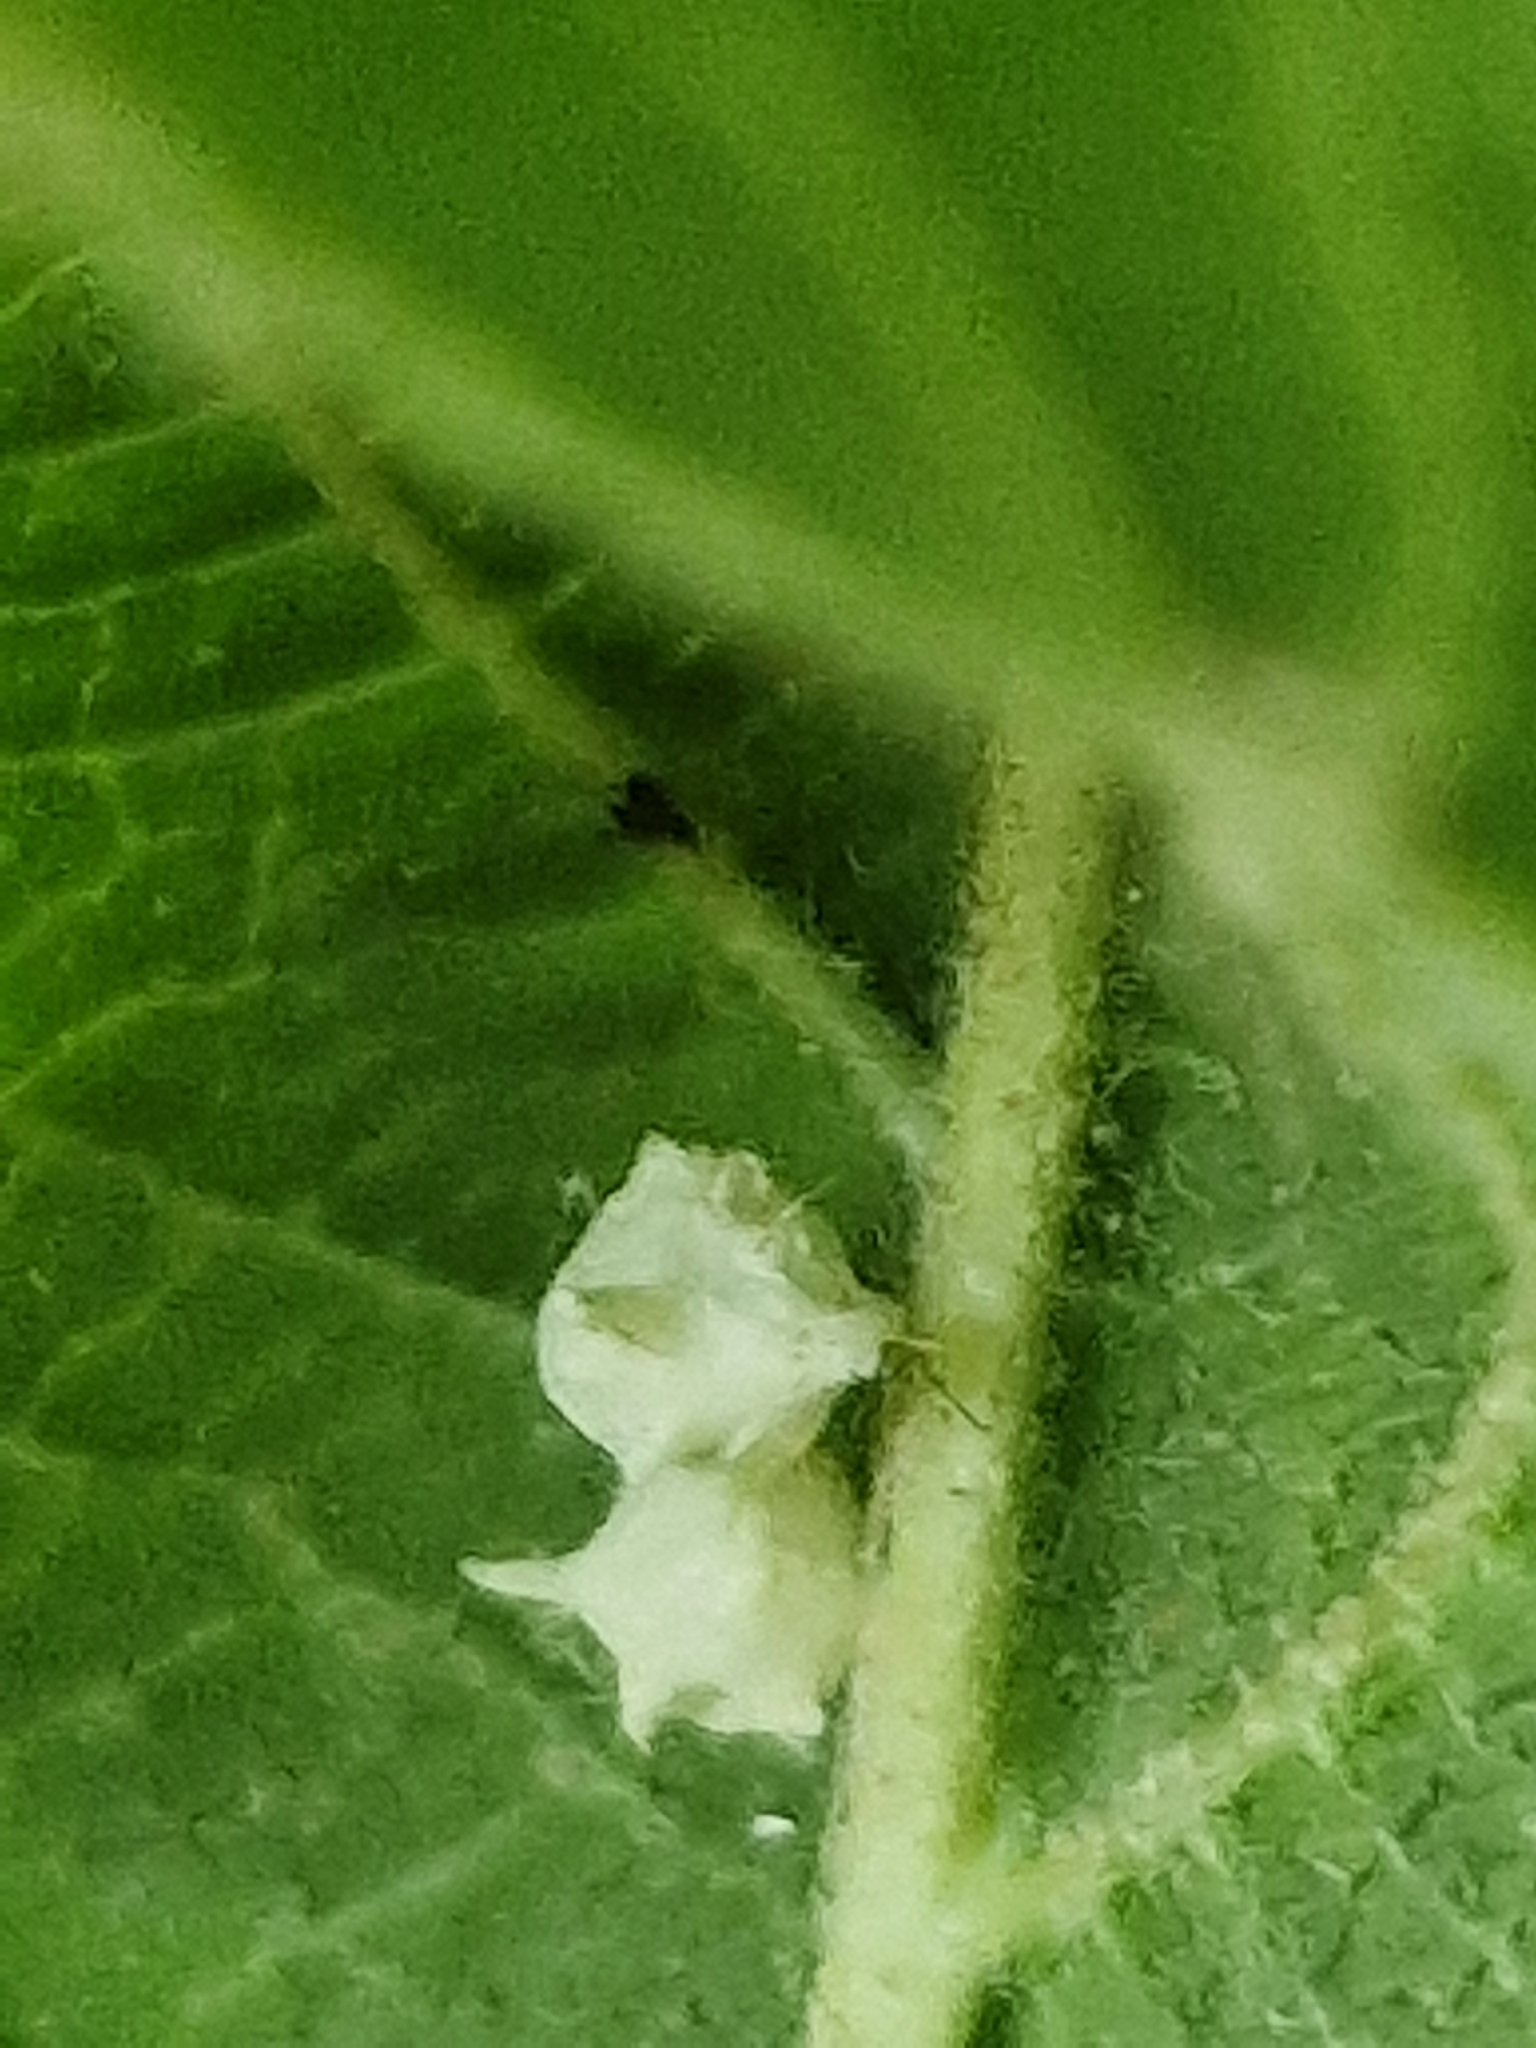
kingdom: Animalia
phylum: Arthropoda
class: Arachnida
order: Araneae
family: Theridiidae
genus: Paidiscura
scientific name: Paidiscura pallens
